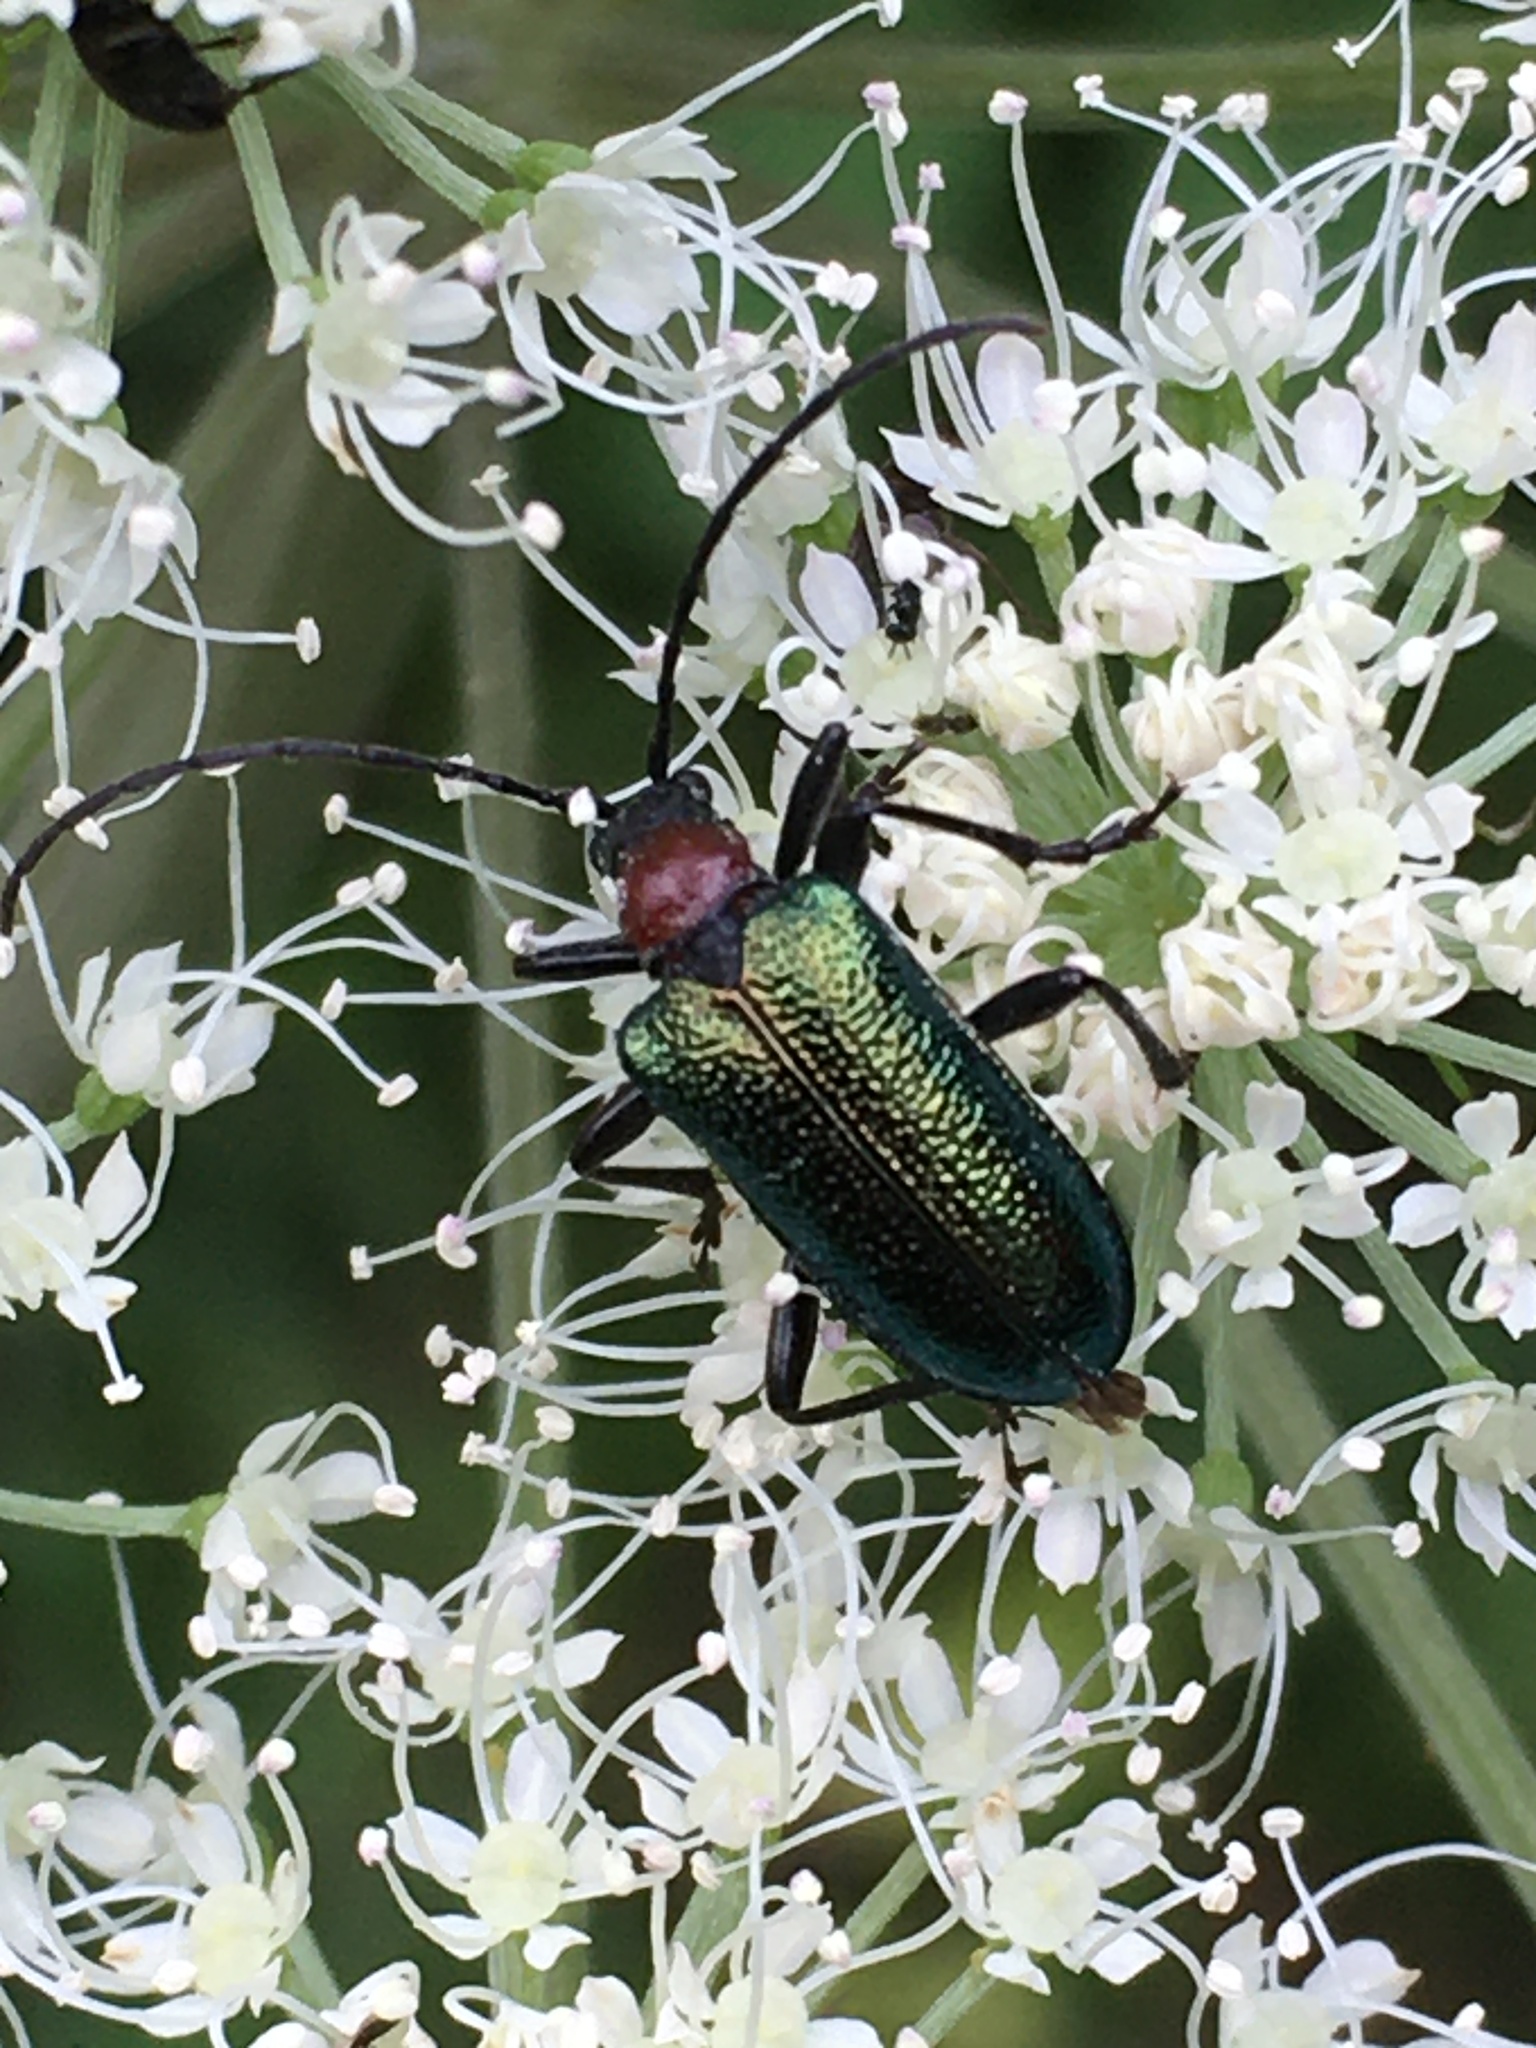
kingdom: Animalia
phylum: Arthropoda
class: Insecta
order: Coleoptera
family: Cerambycidae
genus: Gaurotes
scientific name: Gaurotes virginea
